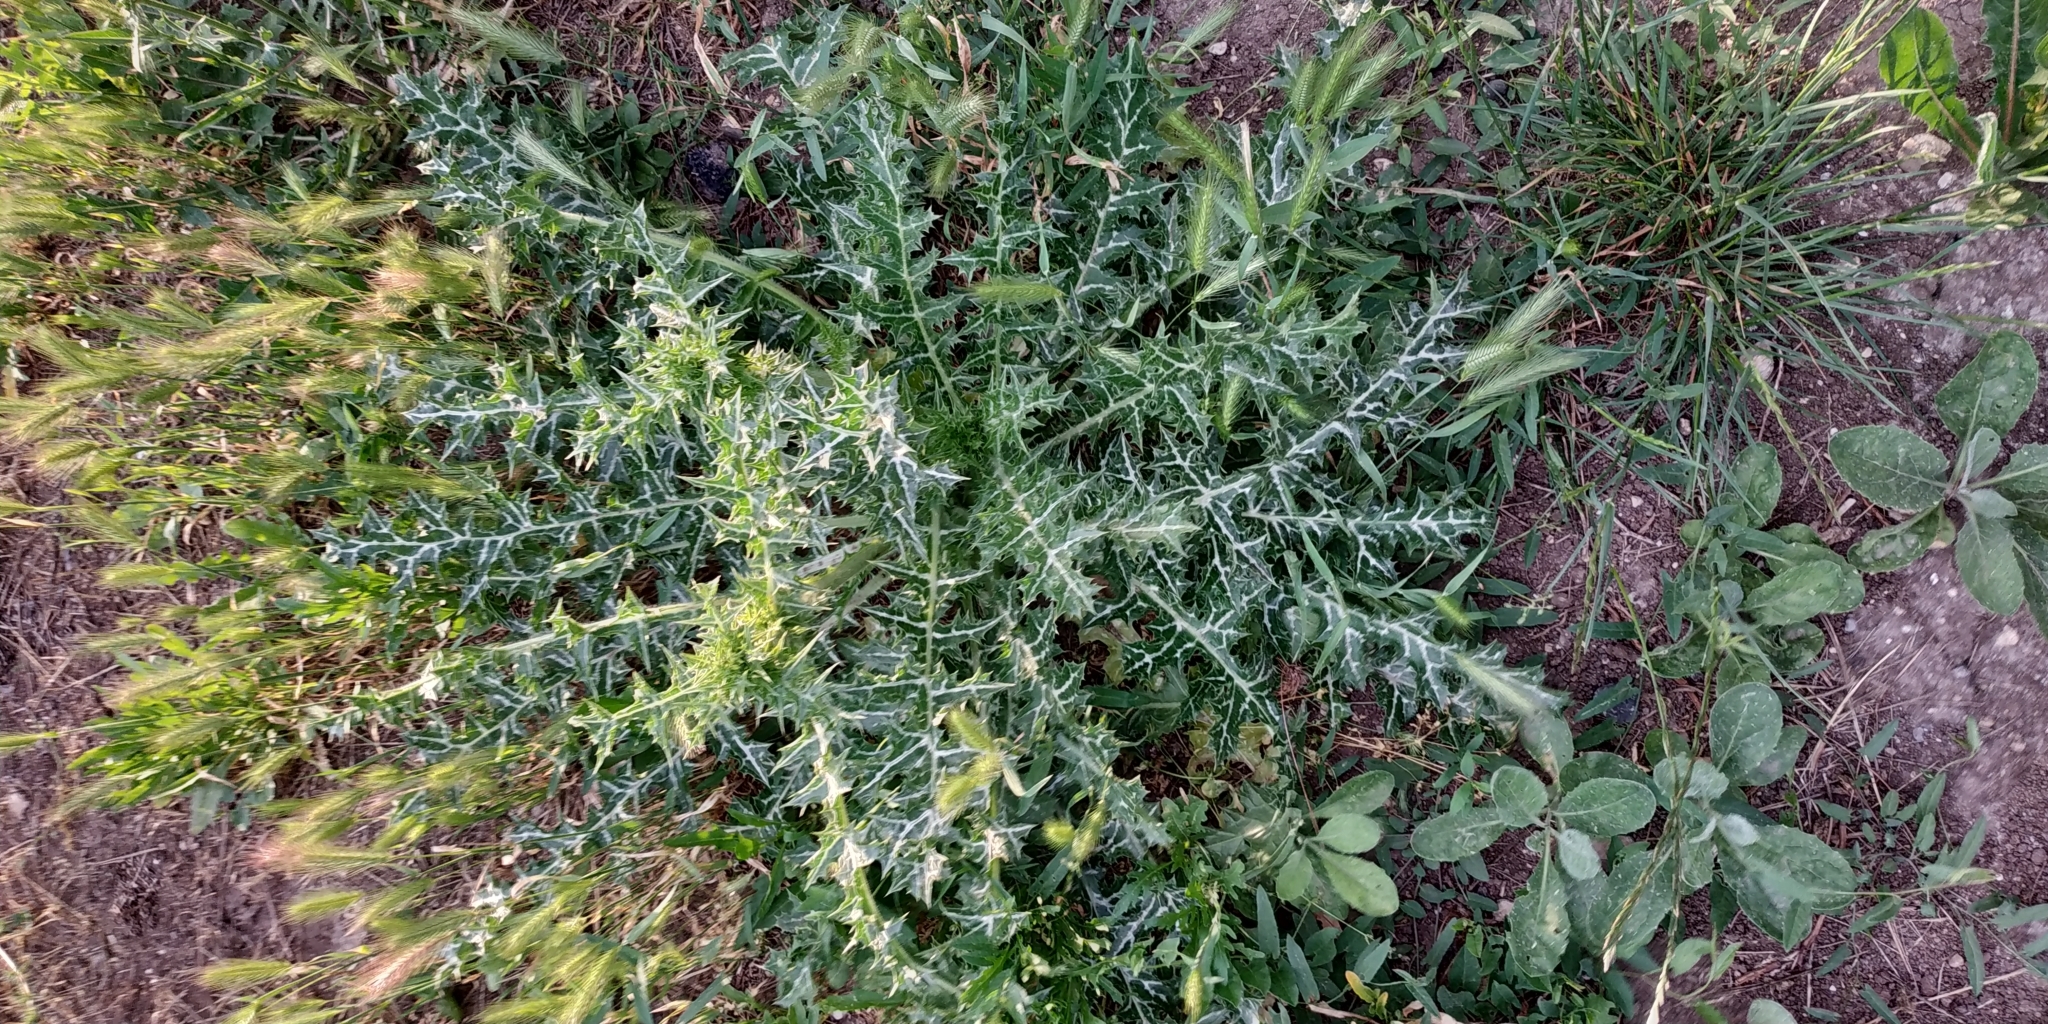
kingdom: Plantae
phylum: Tracheophyta
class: Magnoliopsida
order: Asterales
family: Asteraceae
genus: Silybum
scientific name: Silybum marianum
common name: Milk thistle
